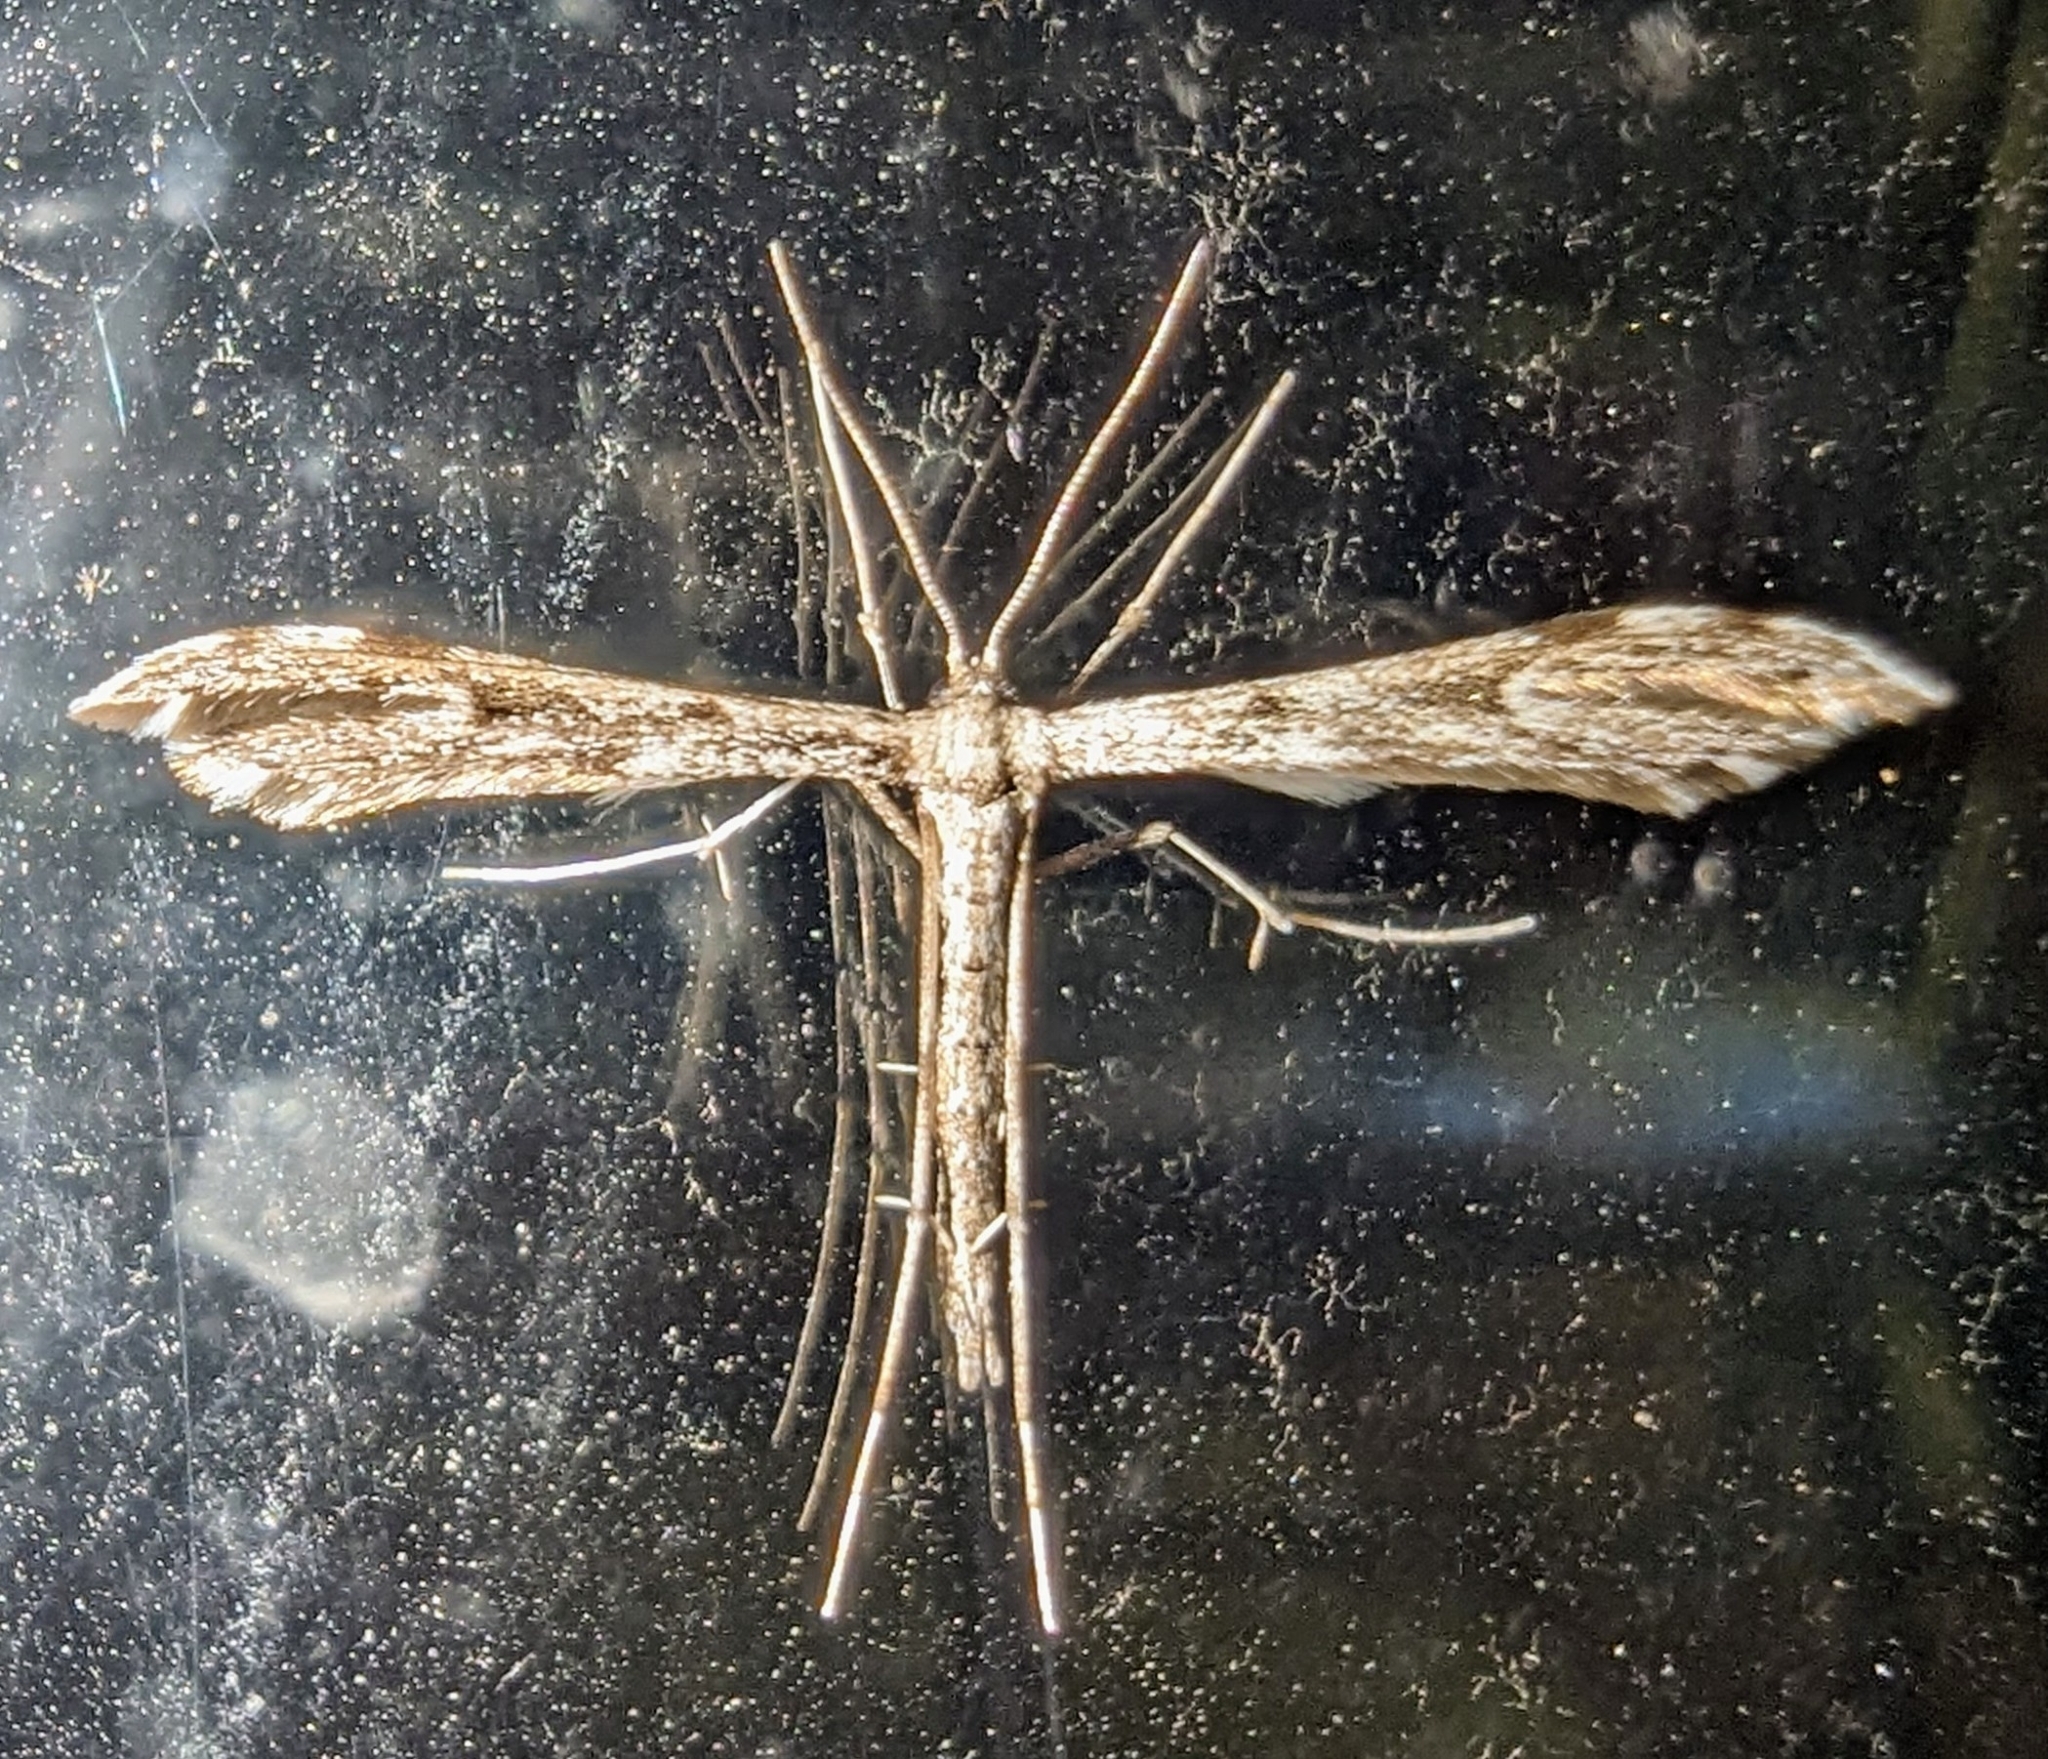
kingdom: Animalia
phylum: Arthropoda
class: Insecta
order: Lepidoptera
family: Pterophoridae
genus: Hellinsia
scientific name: Hellinsia inquinatus
